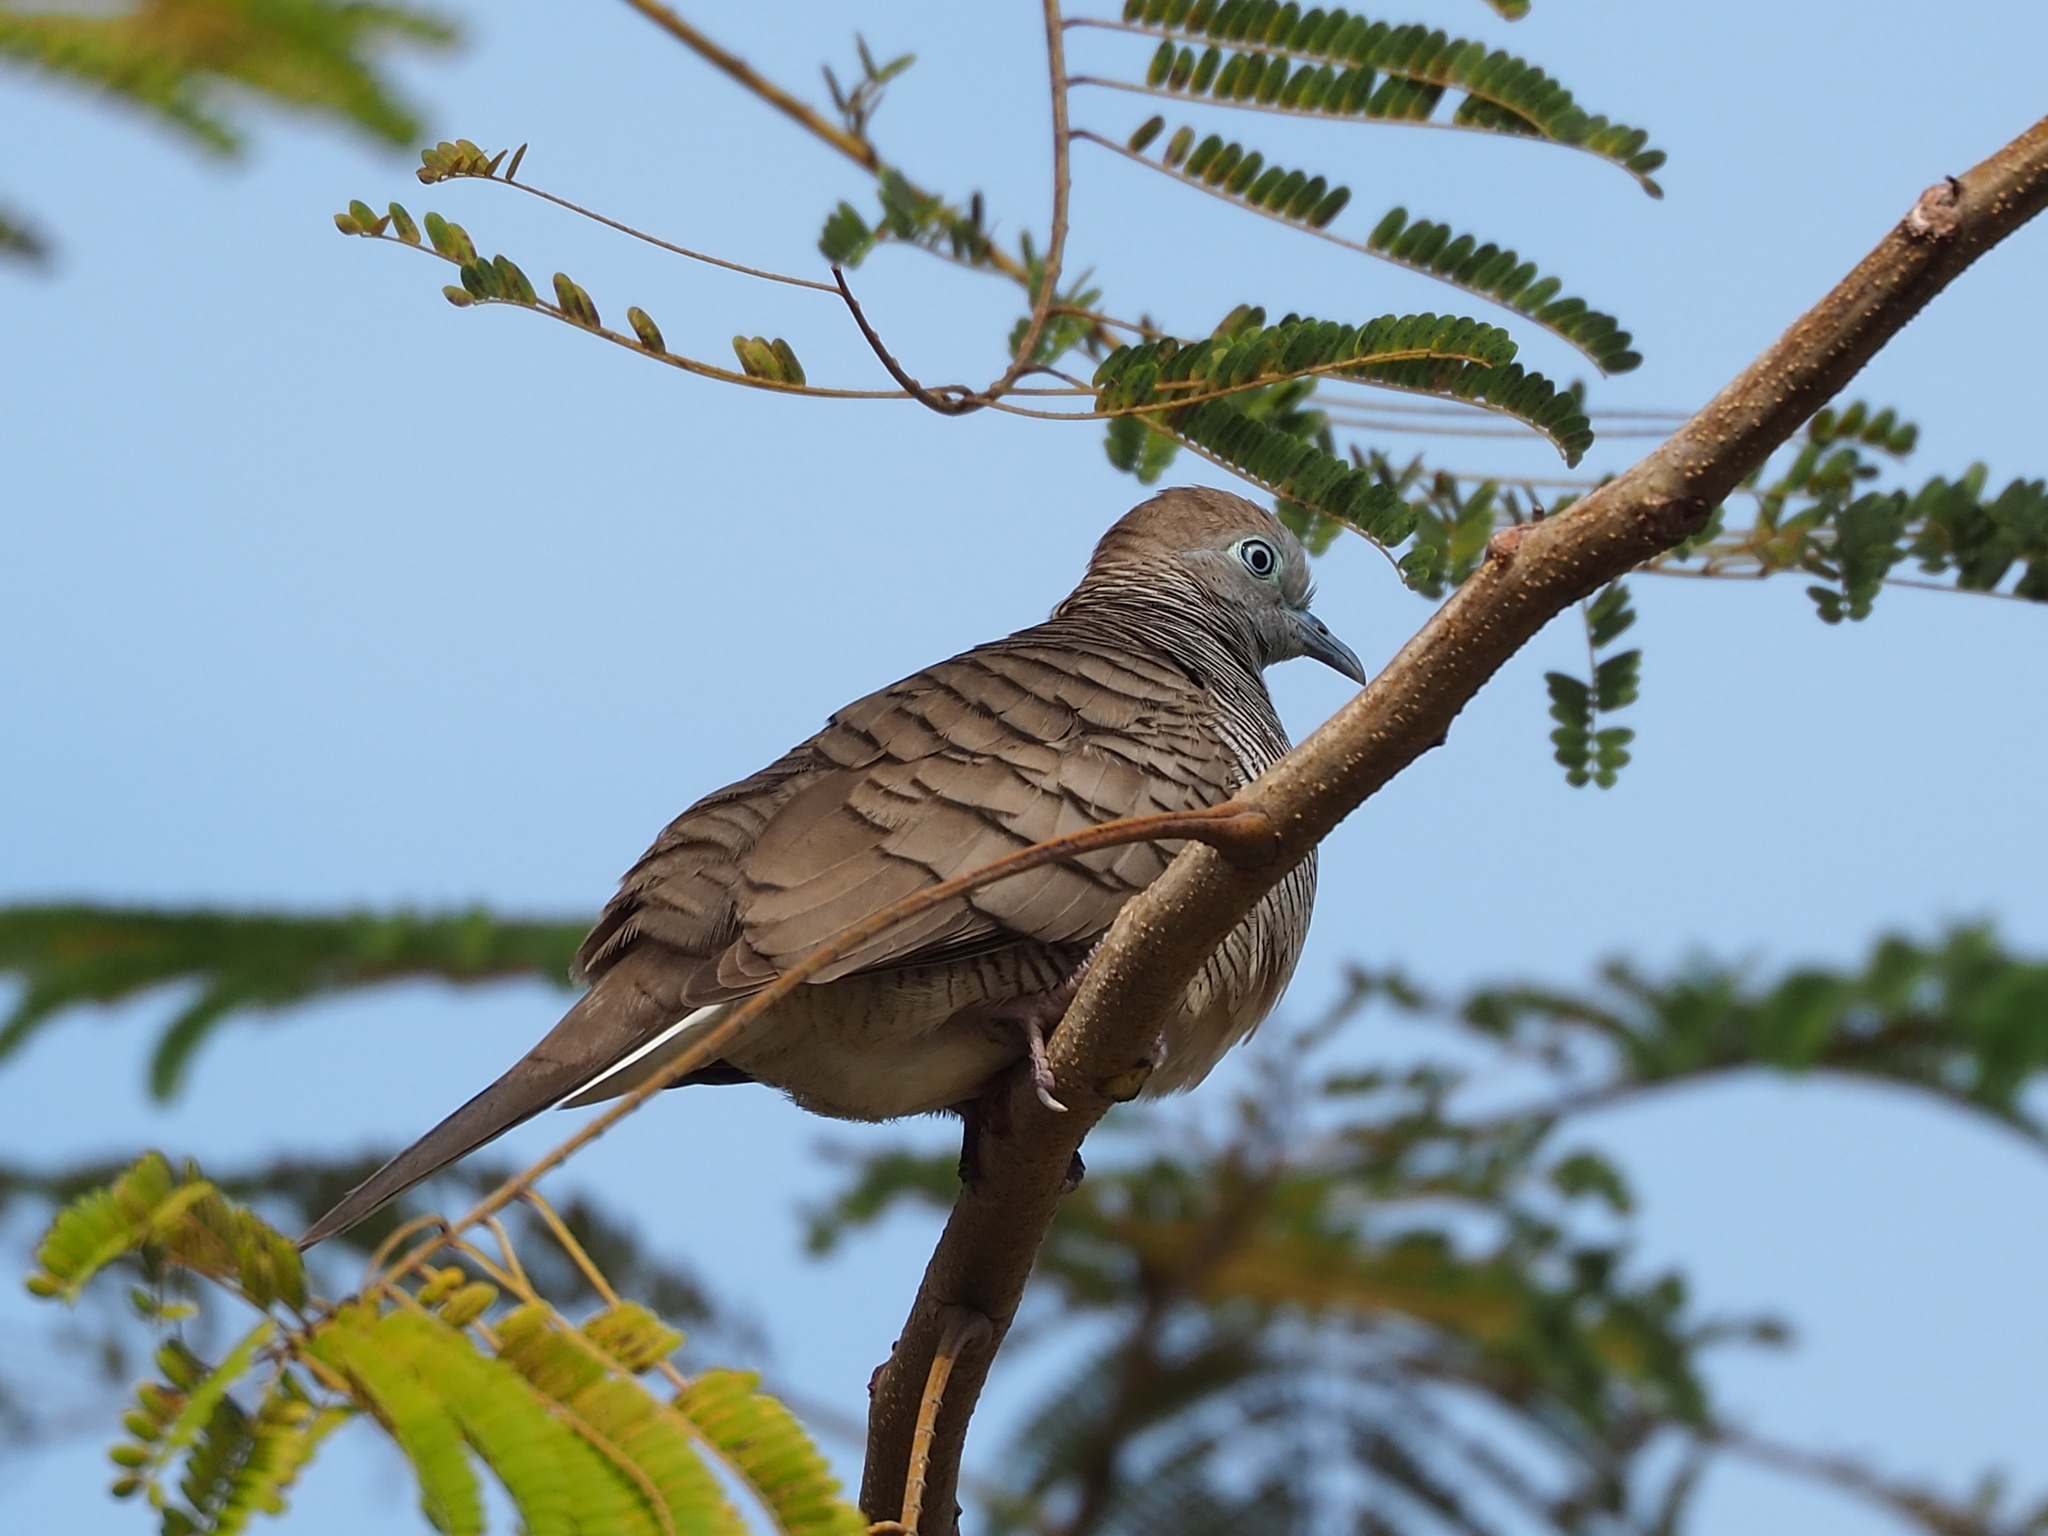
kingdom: Animalia
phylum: Chordata
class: Aves
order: Columbiformes
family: Columbidae
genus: Geopelia
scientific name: Geopelia striata
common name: Zebra dove
